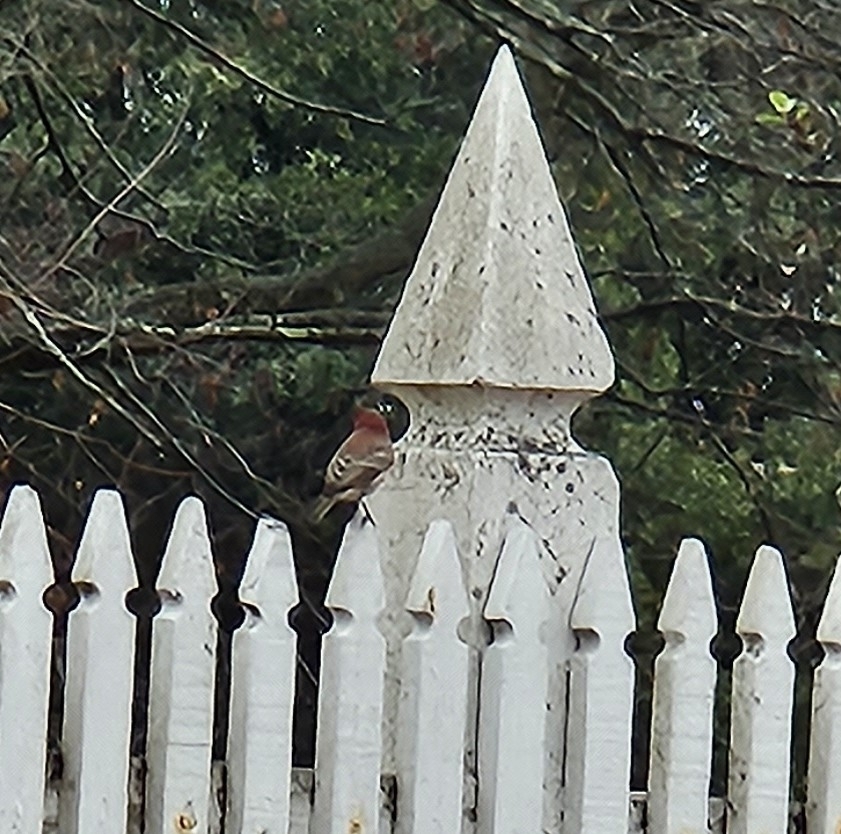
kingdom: Animalia
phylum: Chordata
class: Aves
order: Passeriformes
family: Fringillidae
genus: Haemorhous
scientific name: Haemorhous mexicanus
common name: House finch
